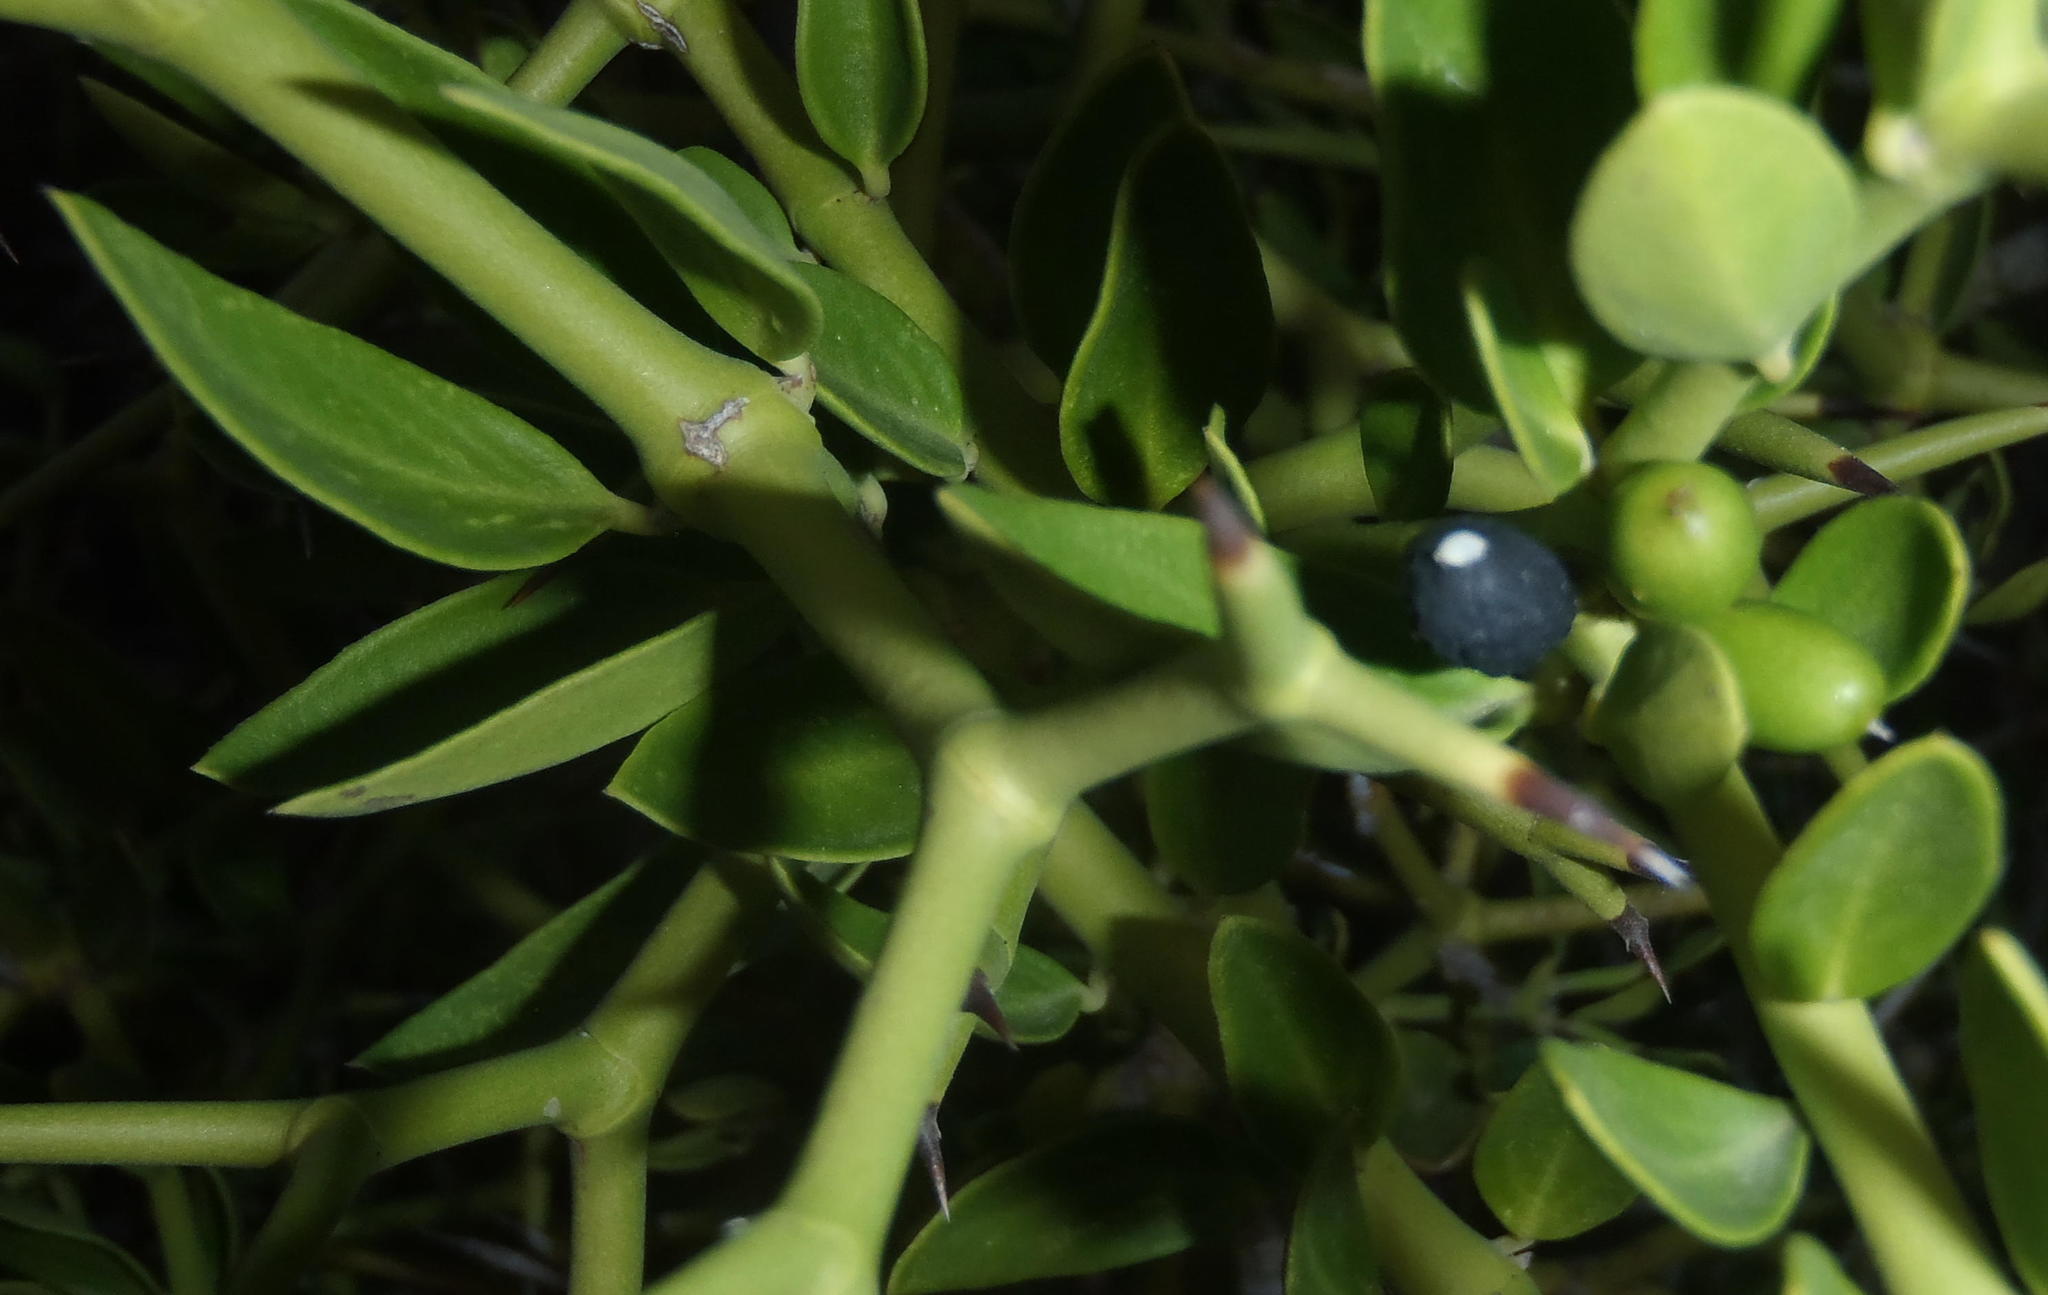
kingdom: Plantae
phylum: Tracheophyta
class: Magnoliopsida
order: Gentianales
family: Apocynaceae
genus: Carissa
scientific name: Carissa haematocarpa
